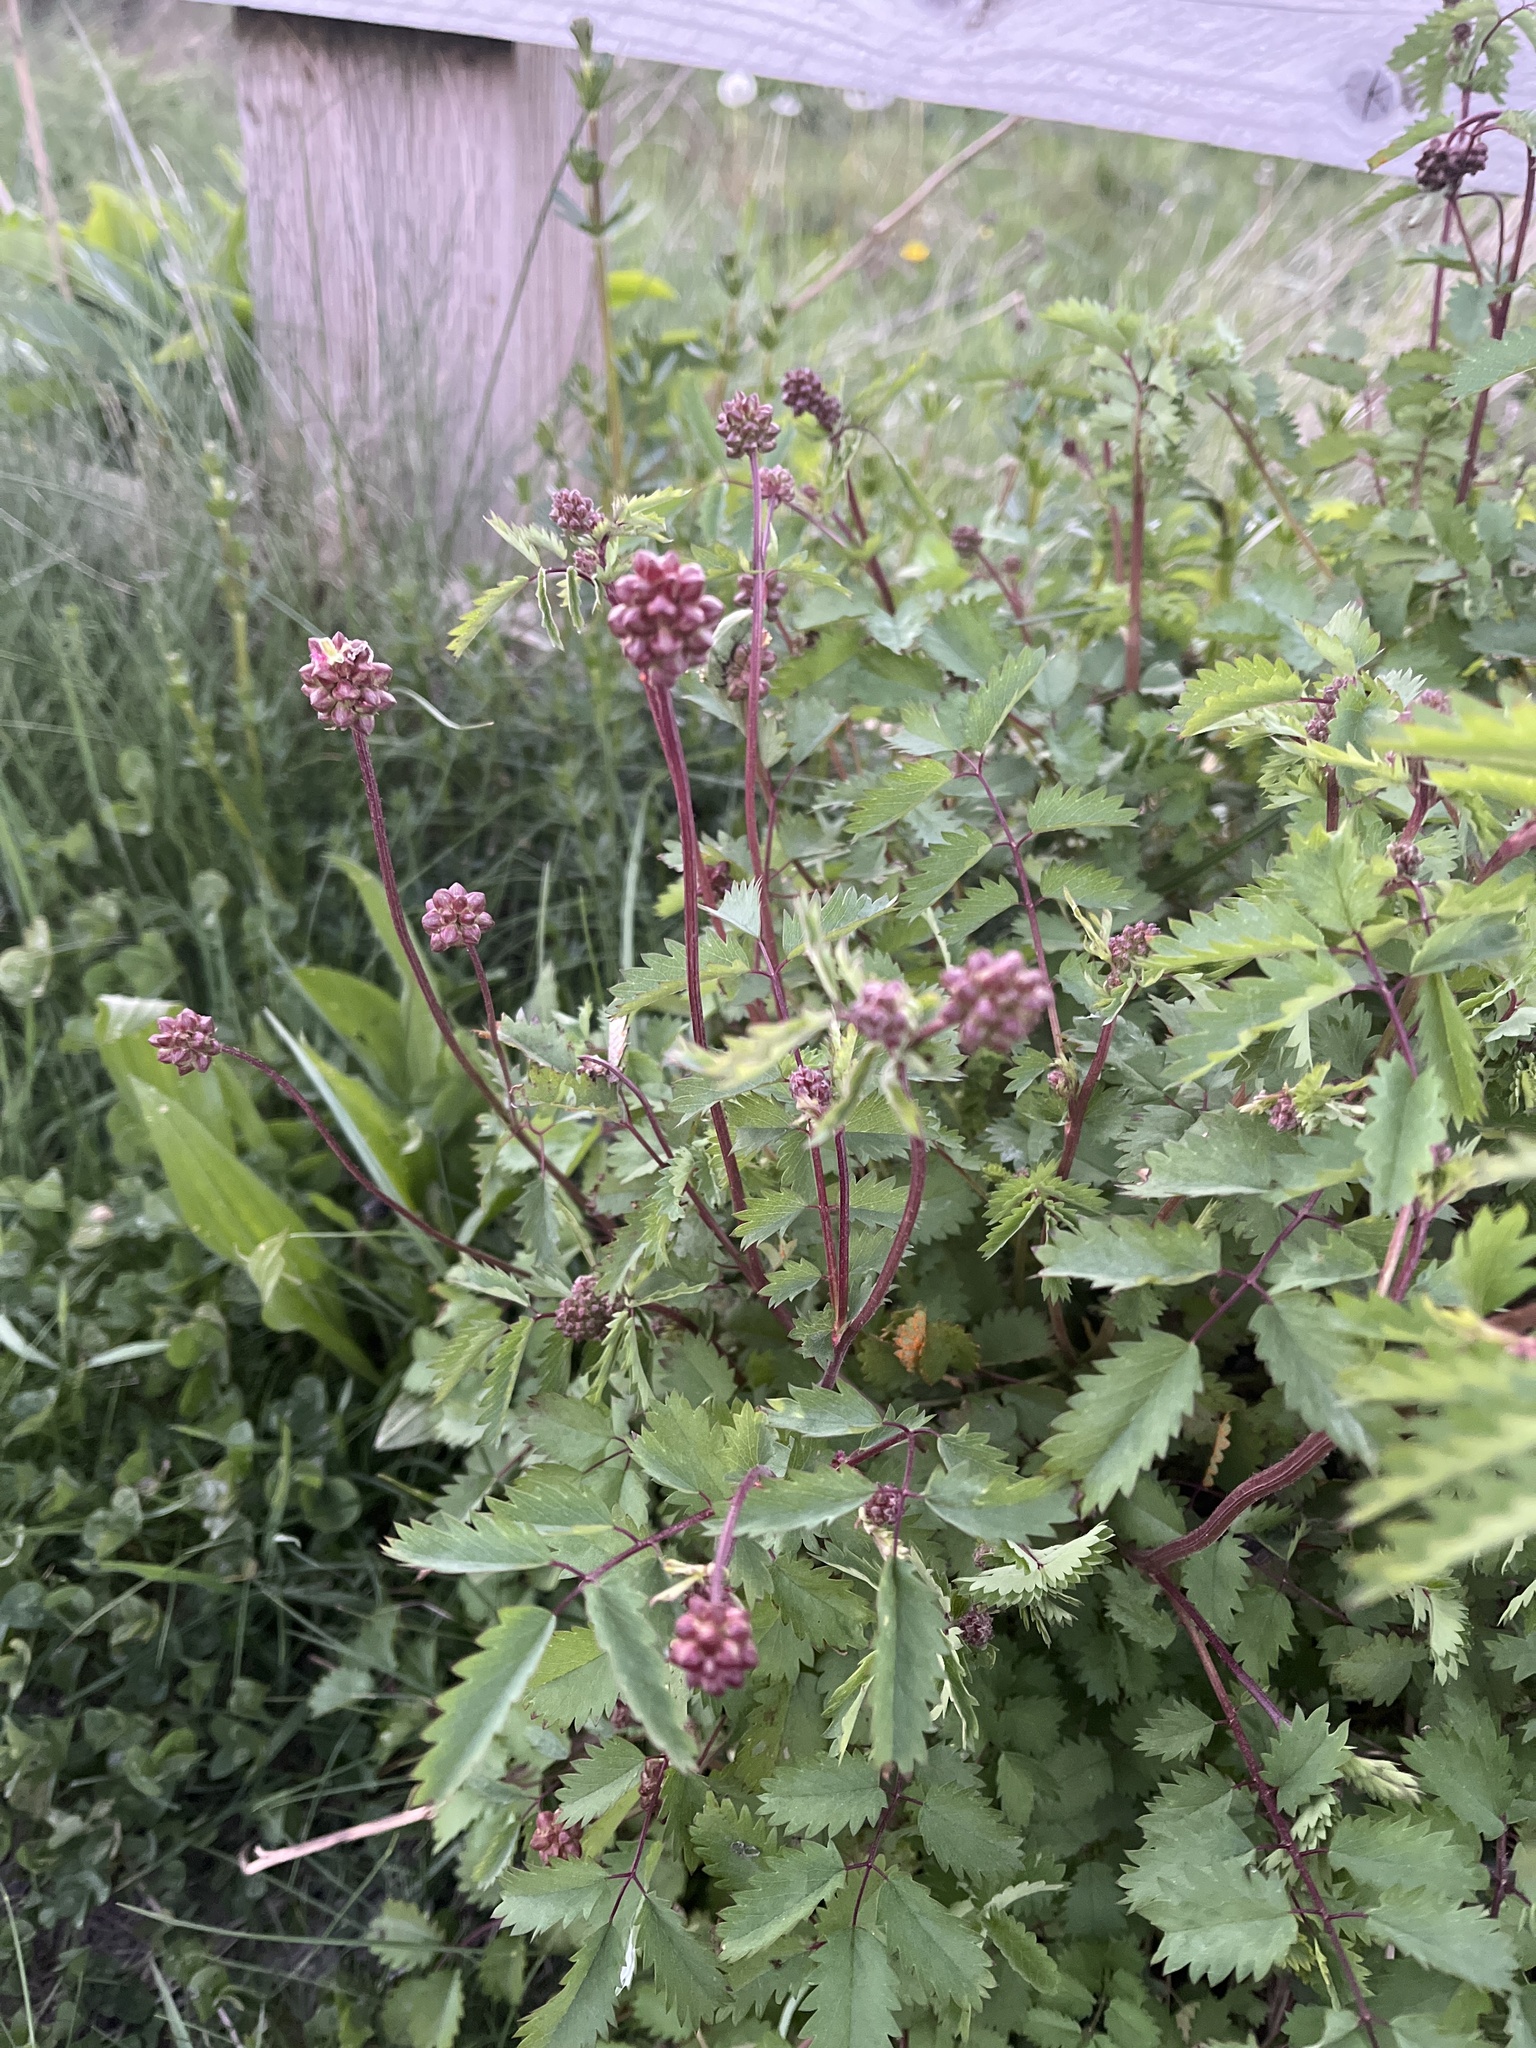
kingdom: Plantae
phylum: Tracheophyta
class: Magnoliopsida
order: Rosales
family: Rosaceae
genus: Poterium
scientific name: Poterium sanguisorba
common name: Salad burnet
